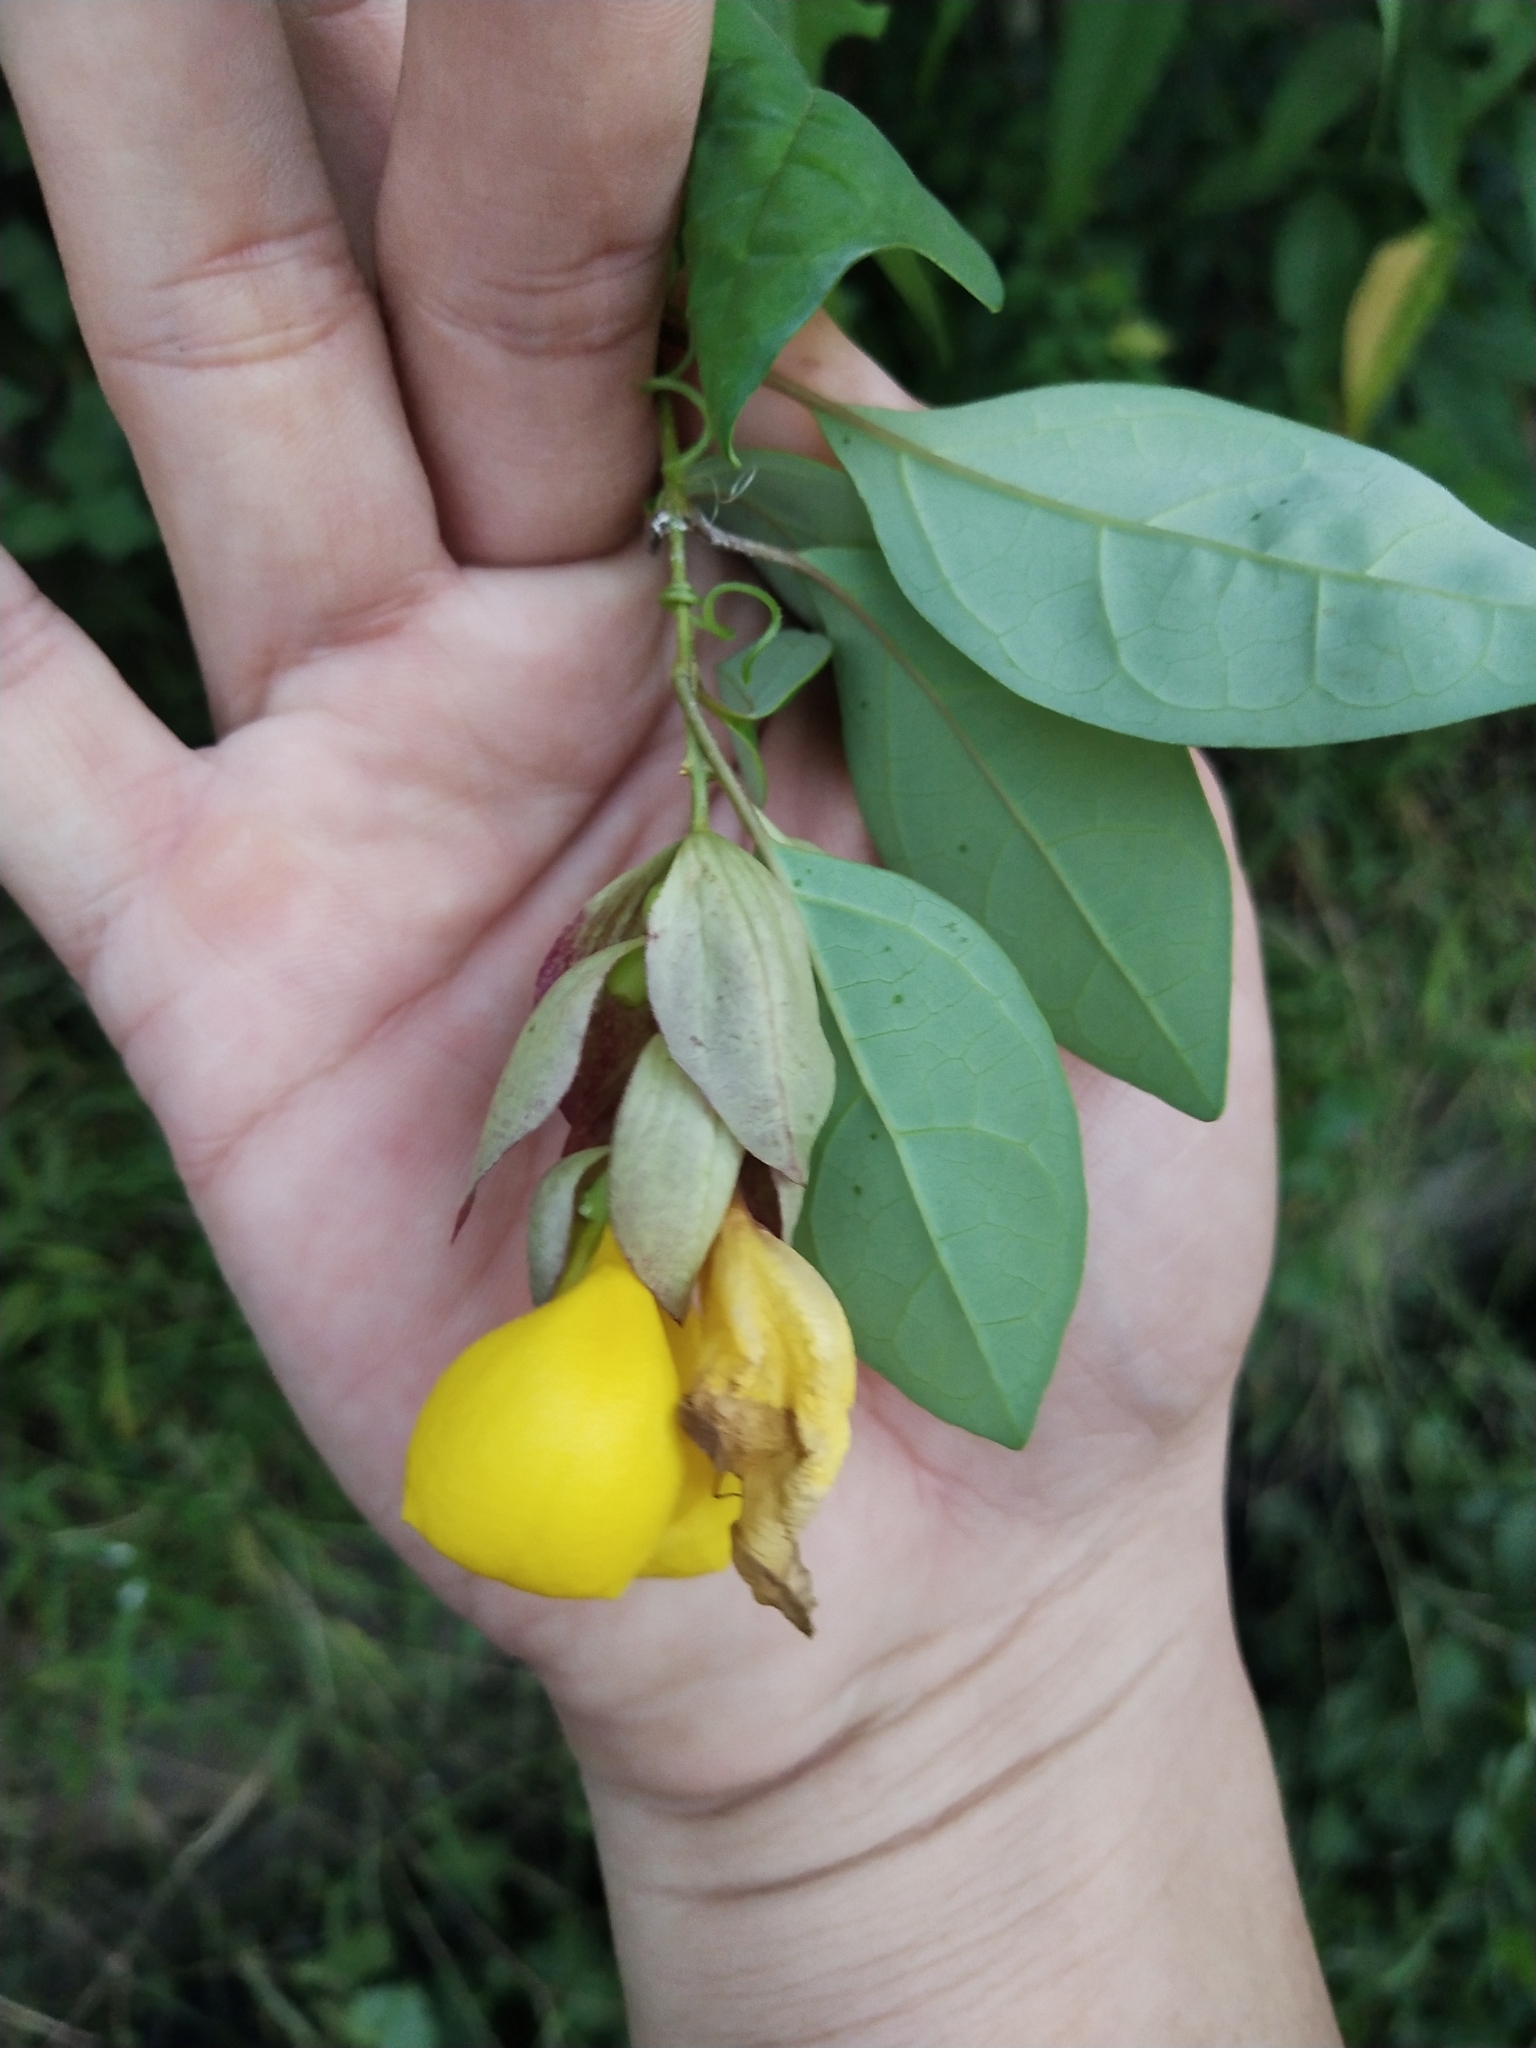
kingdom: Plantae
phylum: Tracheophyta
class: Magnoliopsida
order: Lamiales
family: Lamiaceae
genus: Gmelina
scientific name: Gmelina philippensis
